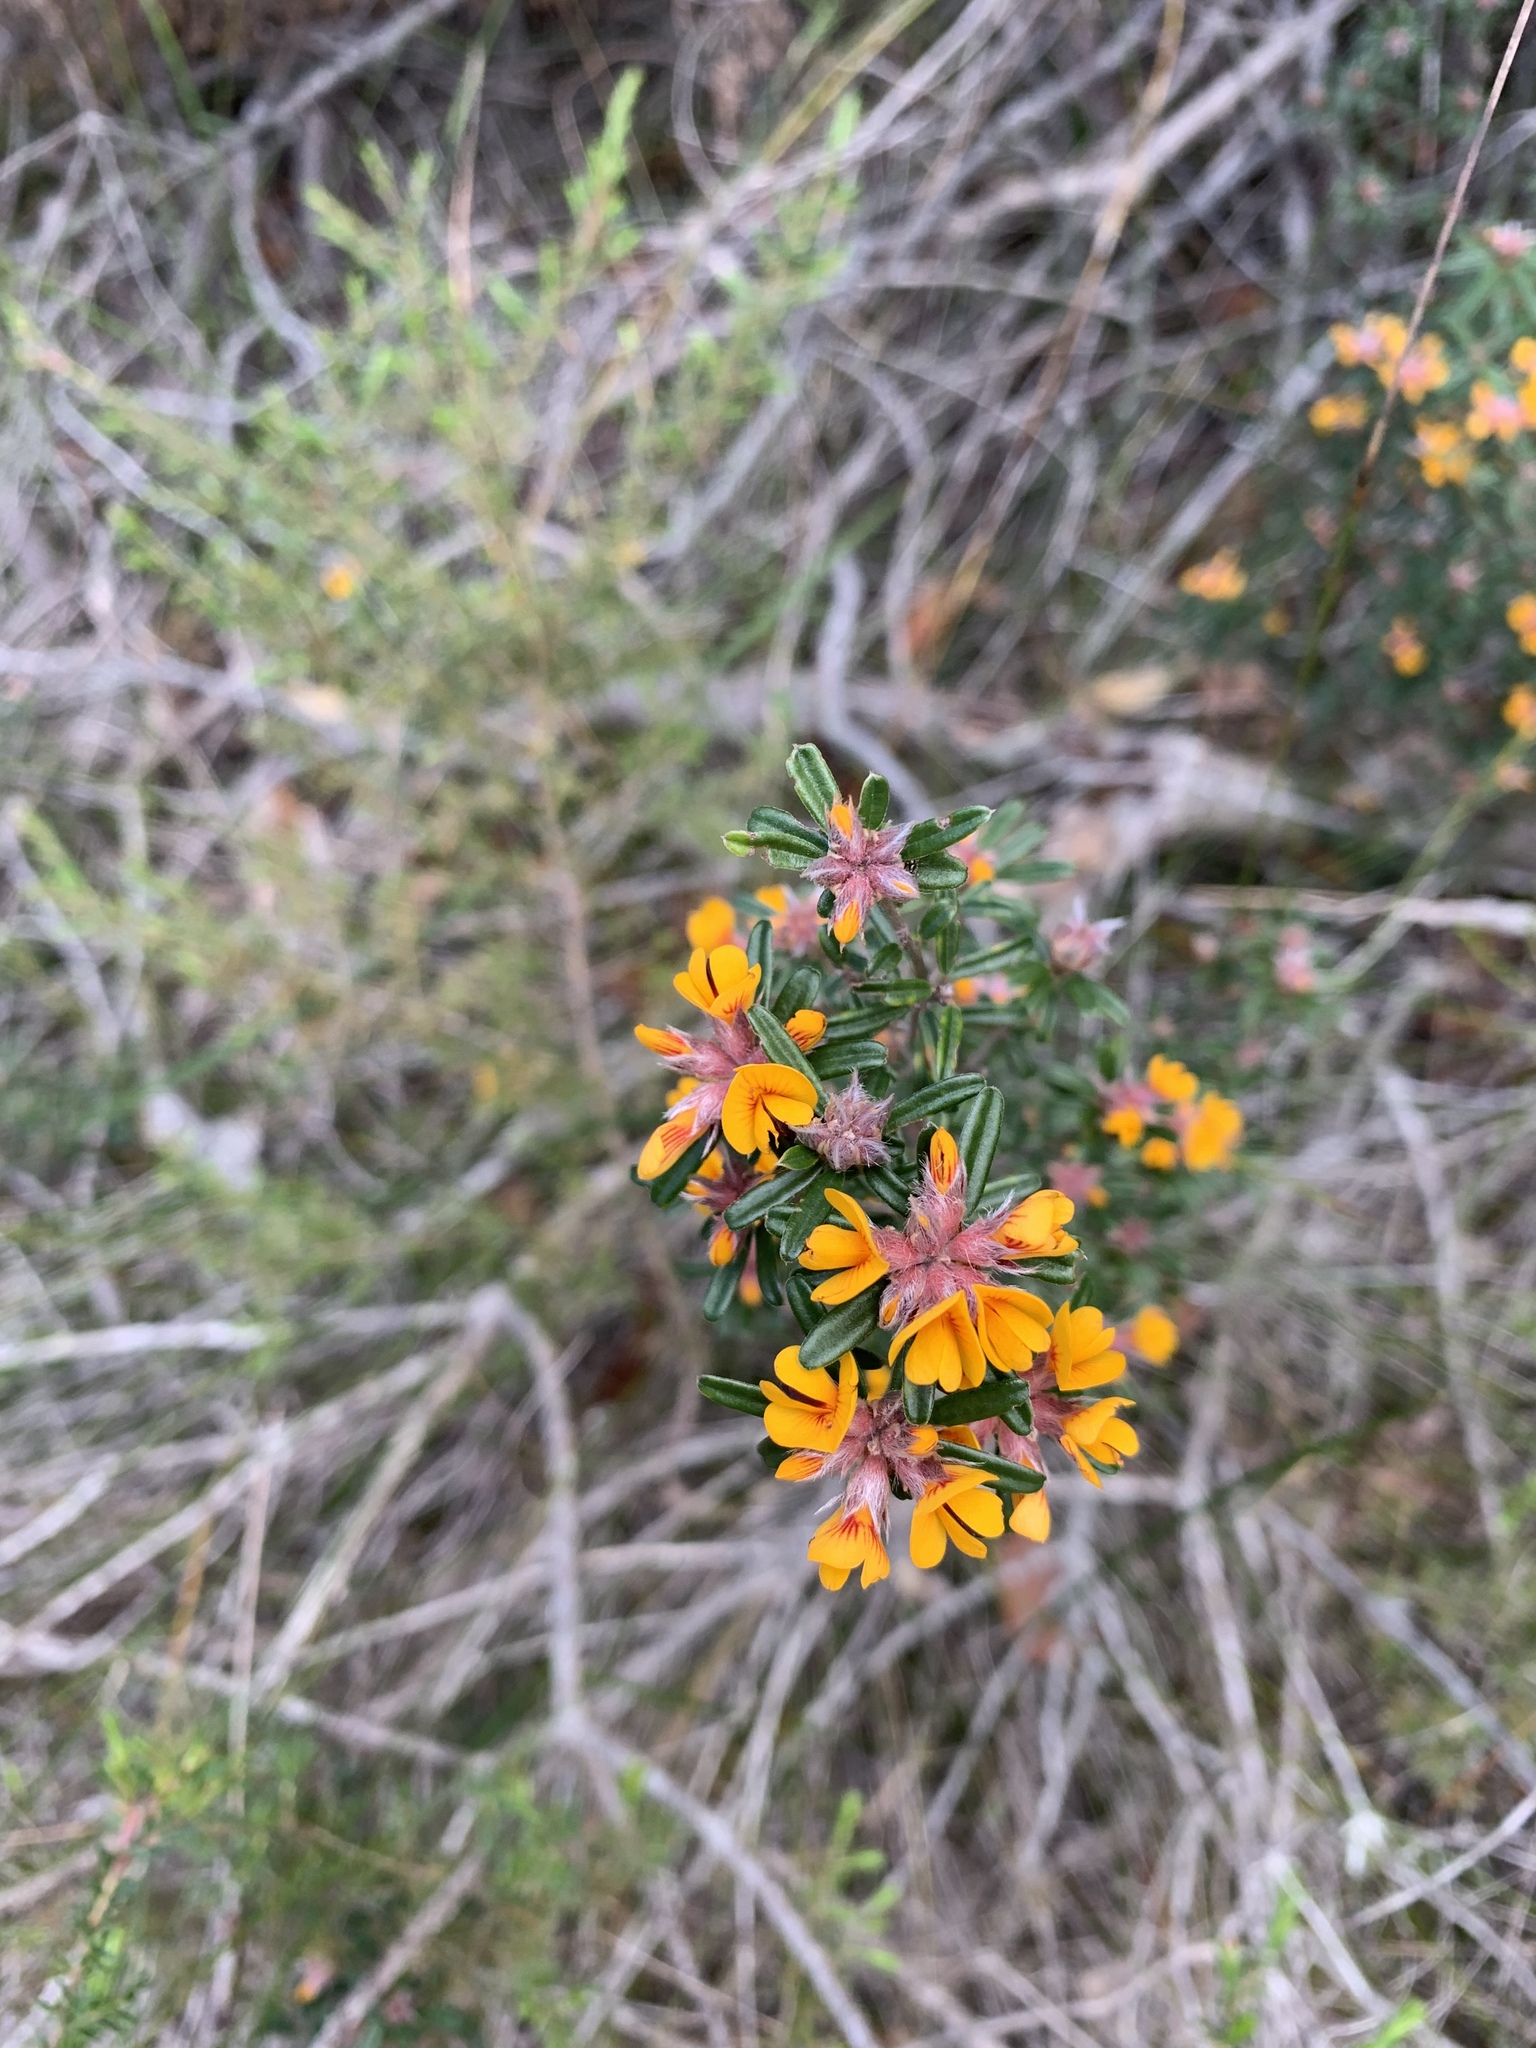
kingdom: Plantae
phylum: Tracheophyta
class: Magnoliopsida
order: Fabales
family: Fabaceae
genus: Pultenaea
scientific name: Pultenaea linophylla
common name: Halo bush-pea
